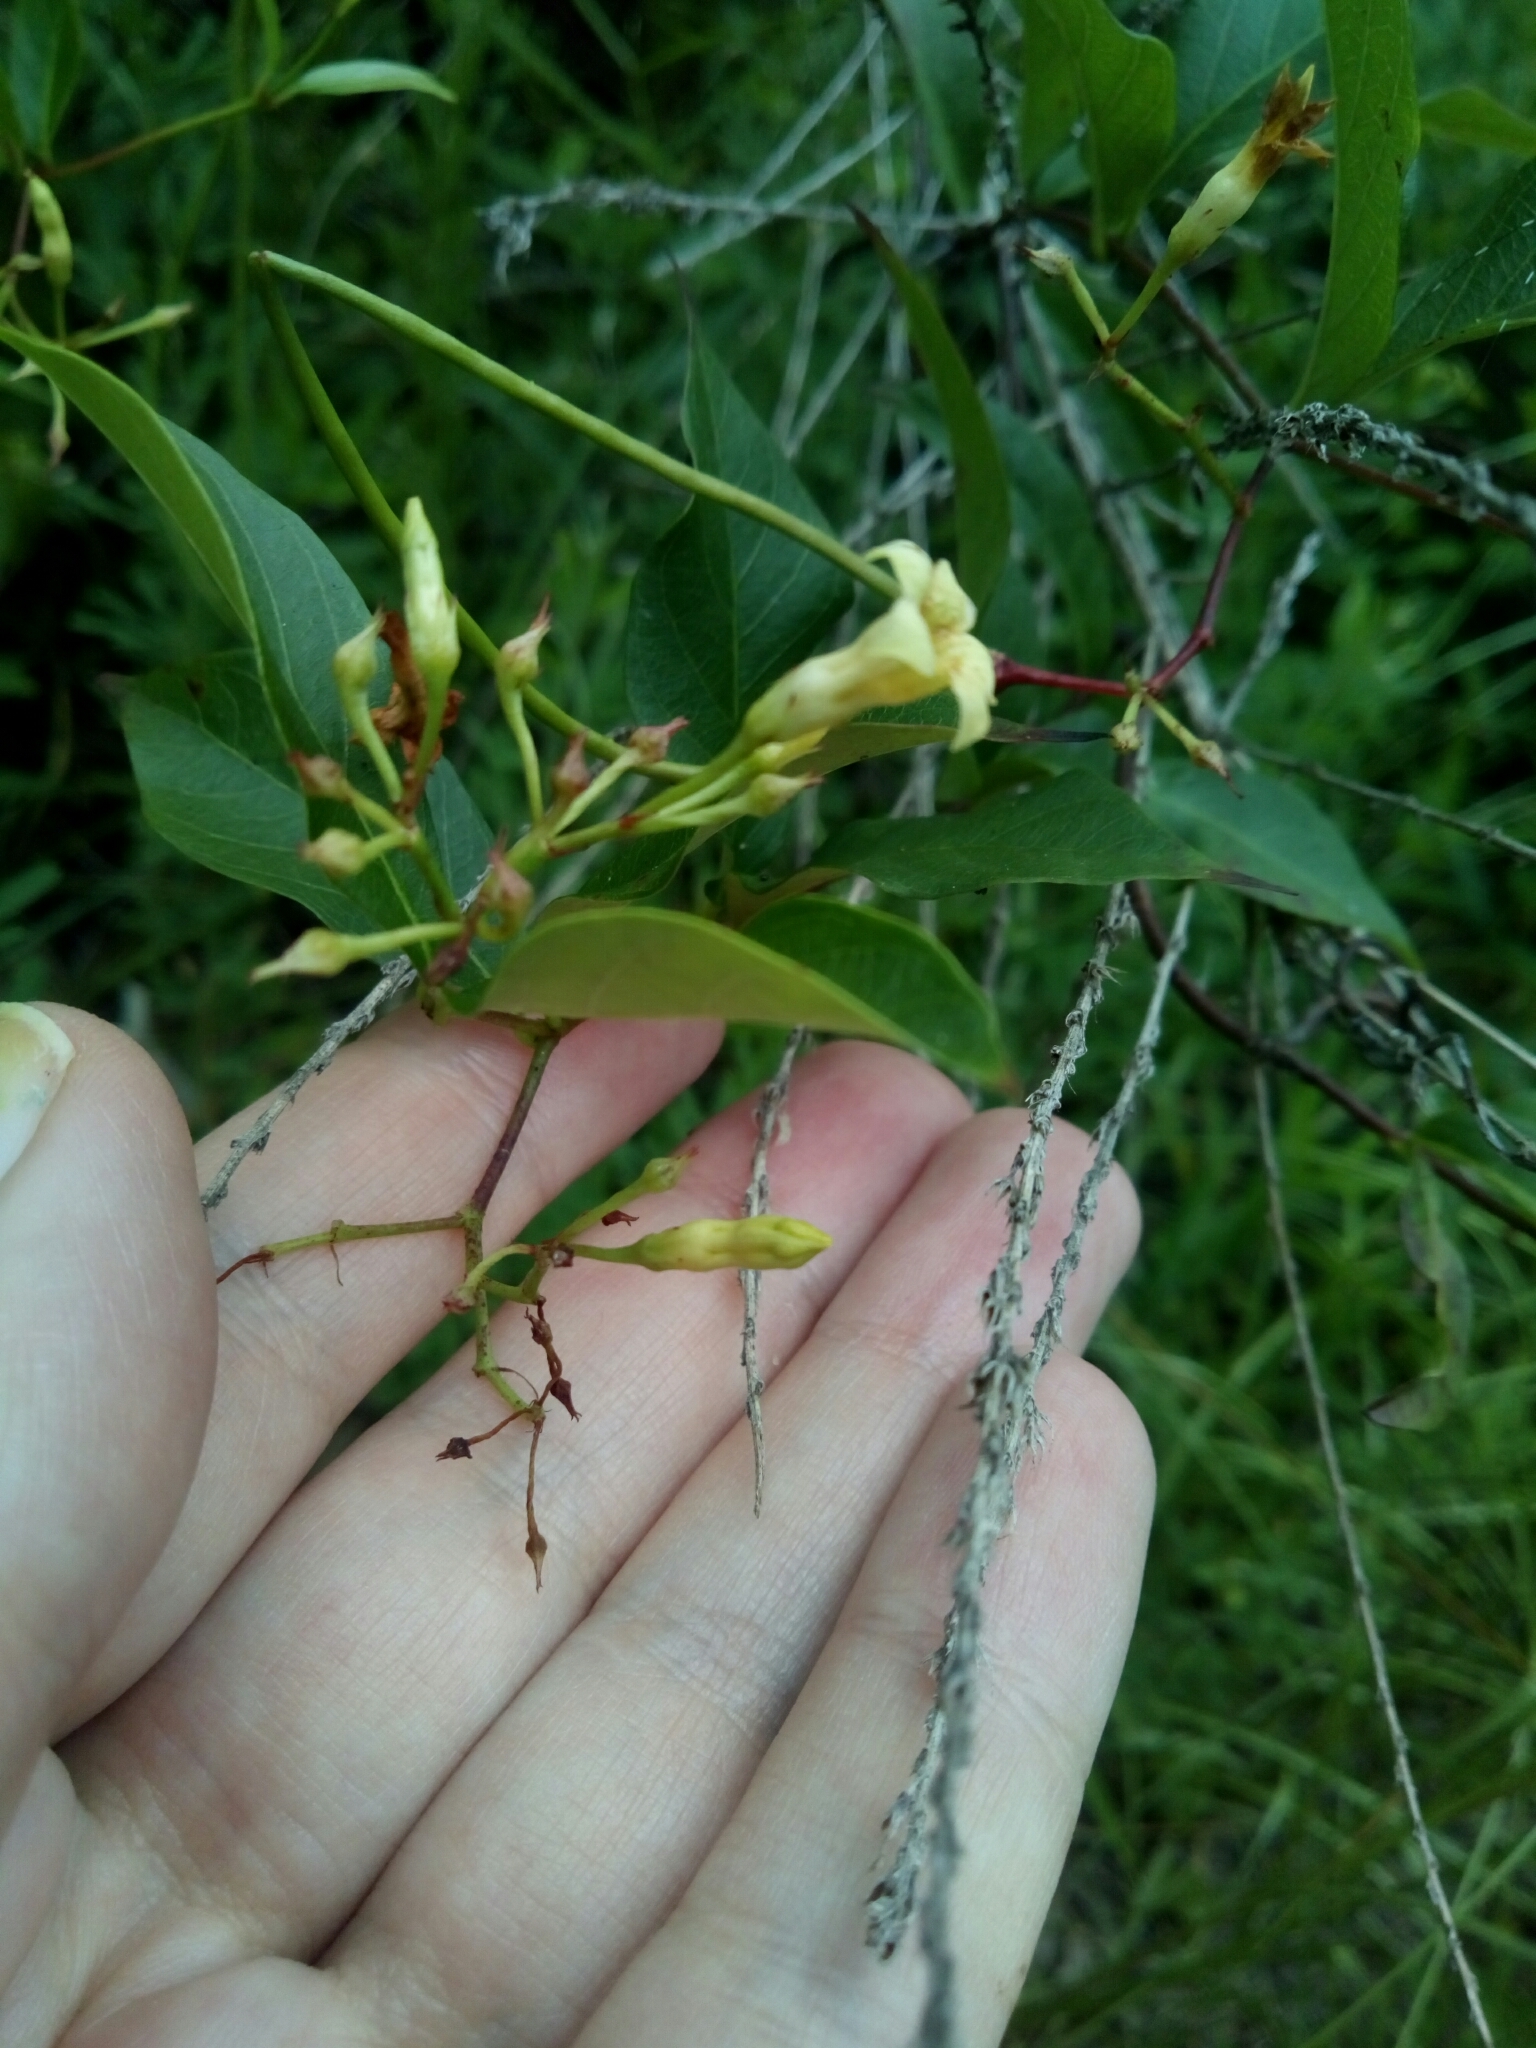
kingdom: Plantae
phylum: Tracheophyta
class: Magnoliopsida
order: Gentianales
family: Apocynaceae
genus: Thyrsanthella
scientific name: Thyrsanthella difformis
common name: Climbing dogbane
